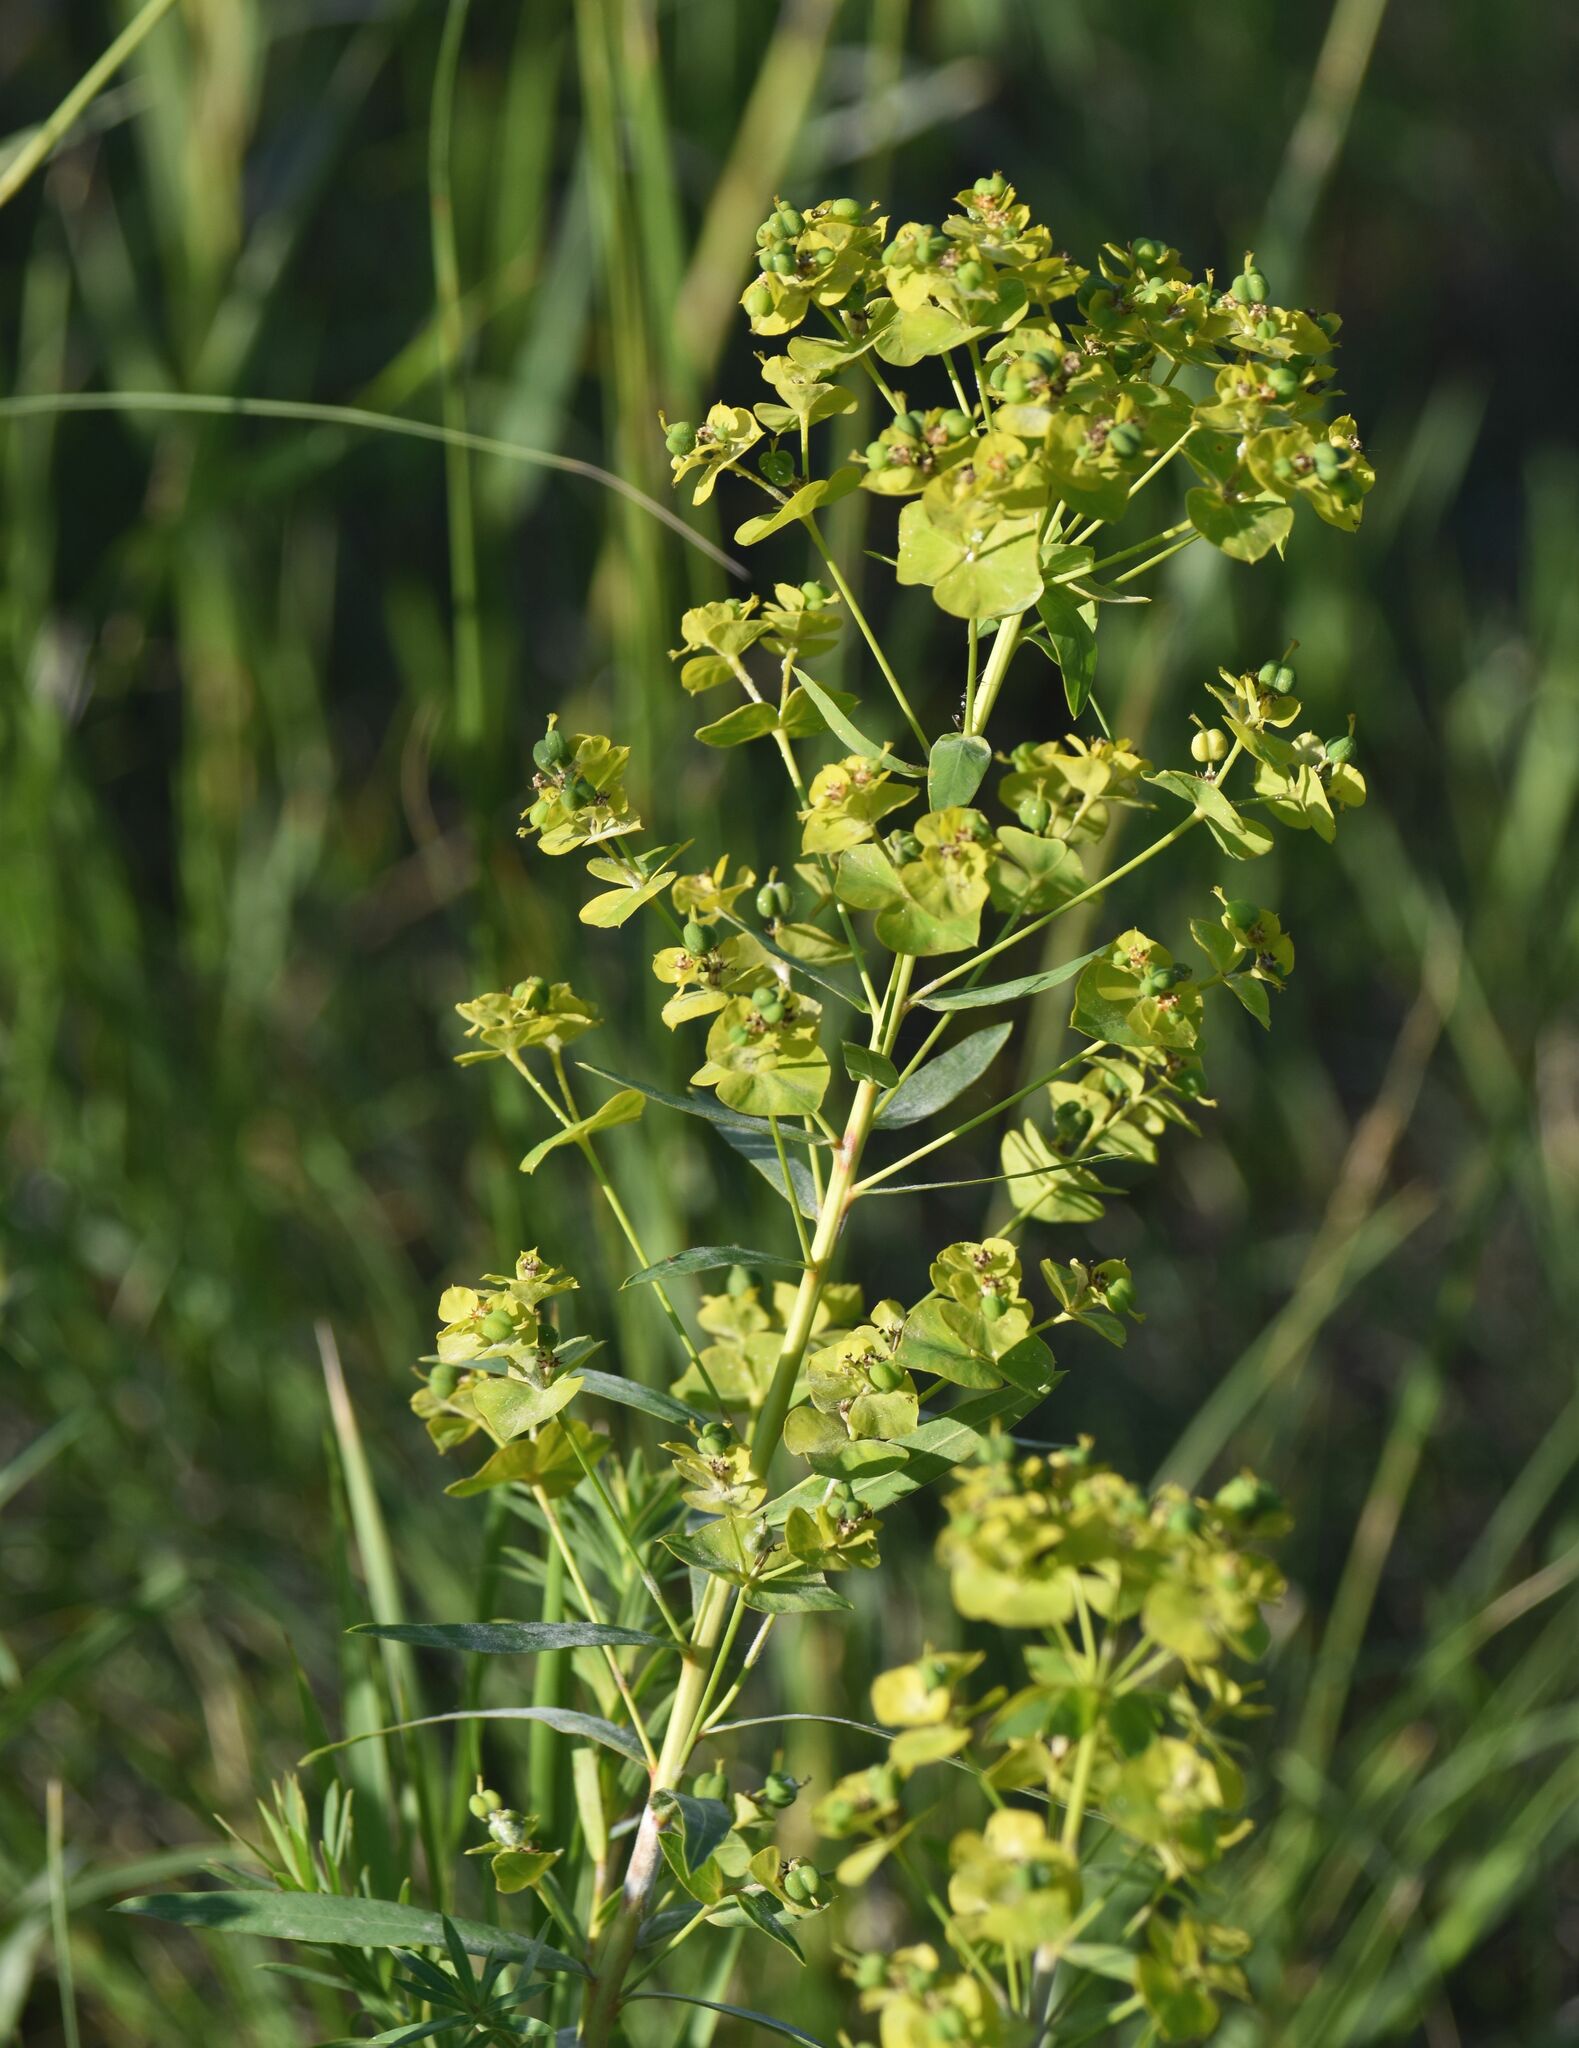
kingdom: Plantae
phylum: Tracheophyta
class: Magnoliopsida
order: Malpighiales
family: Euphorbiaceae
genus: Euphorbia
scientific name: Euphorbia virgata
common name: Leafy spurge
